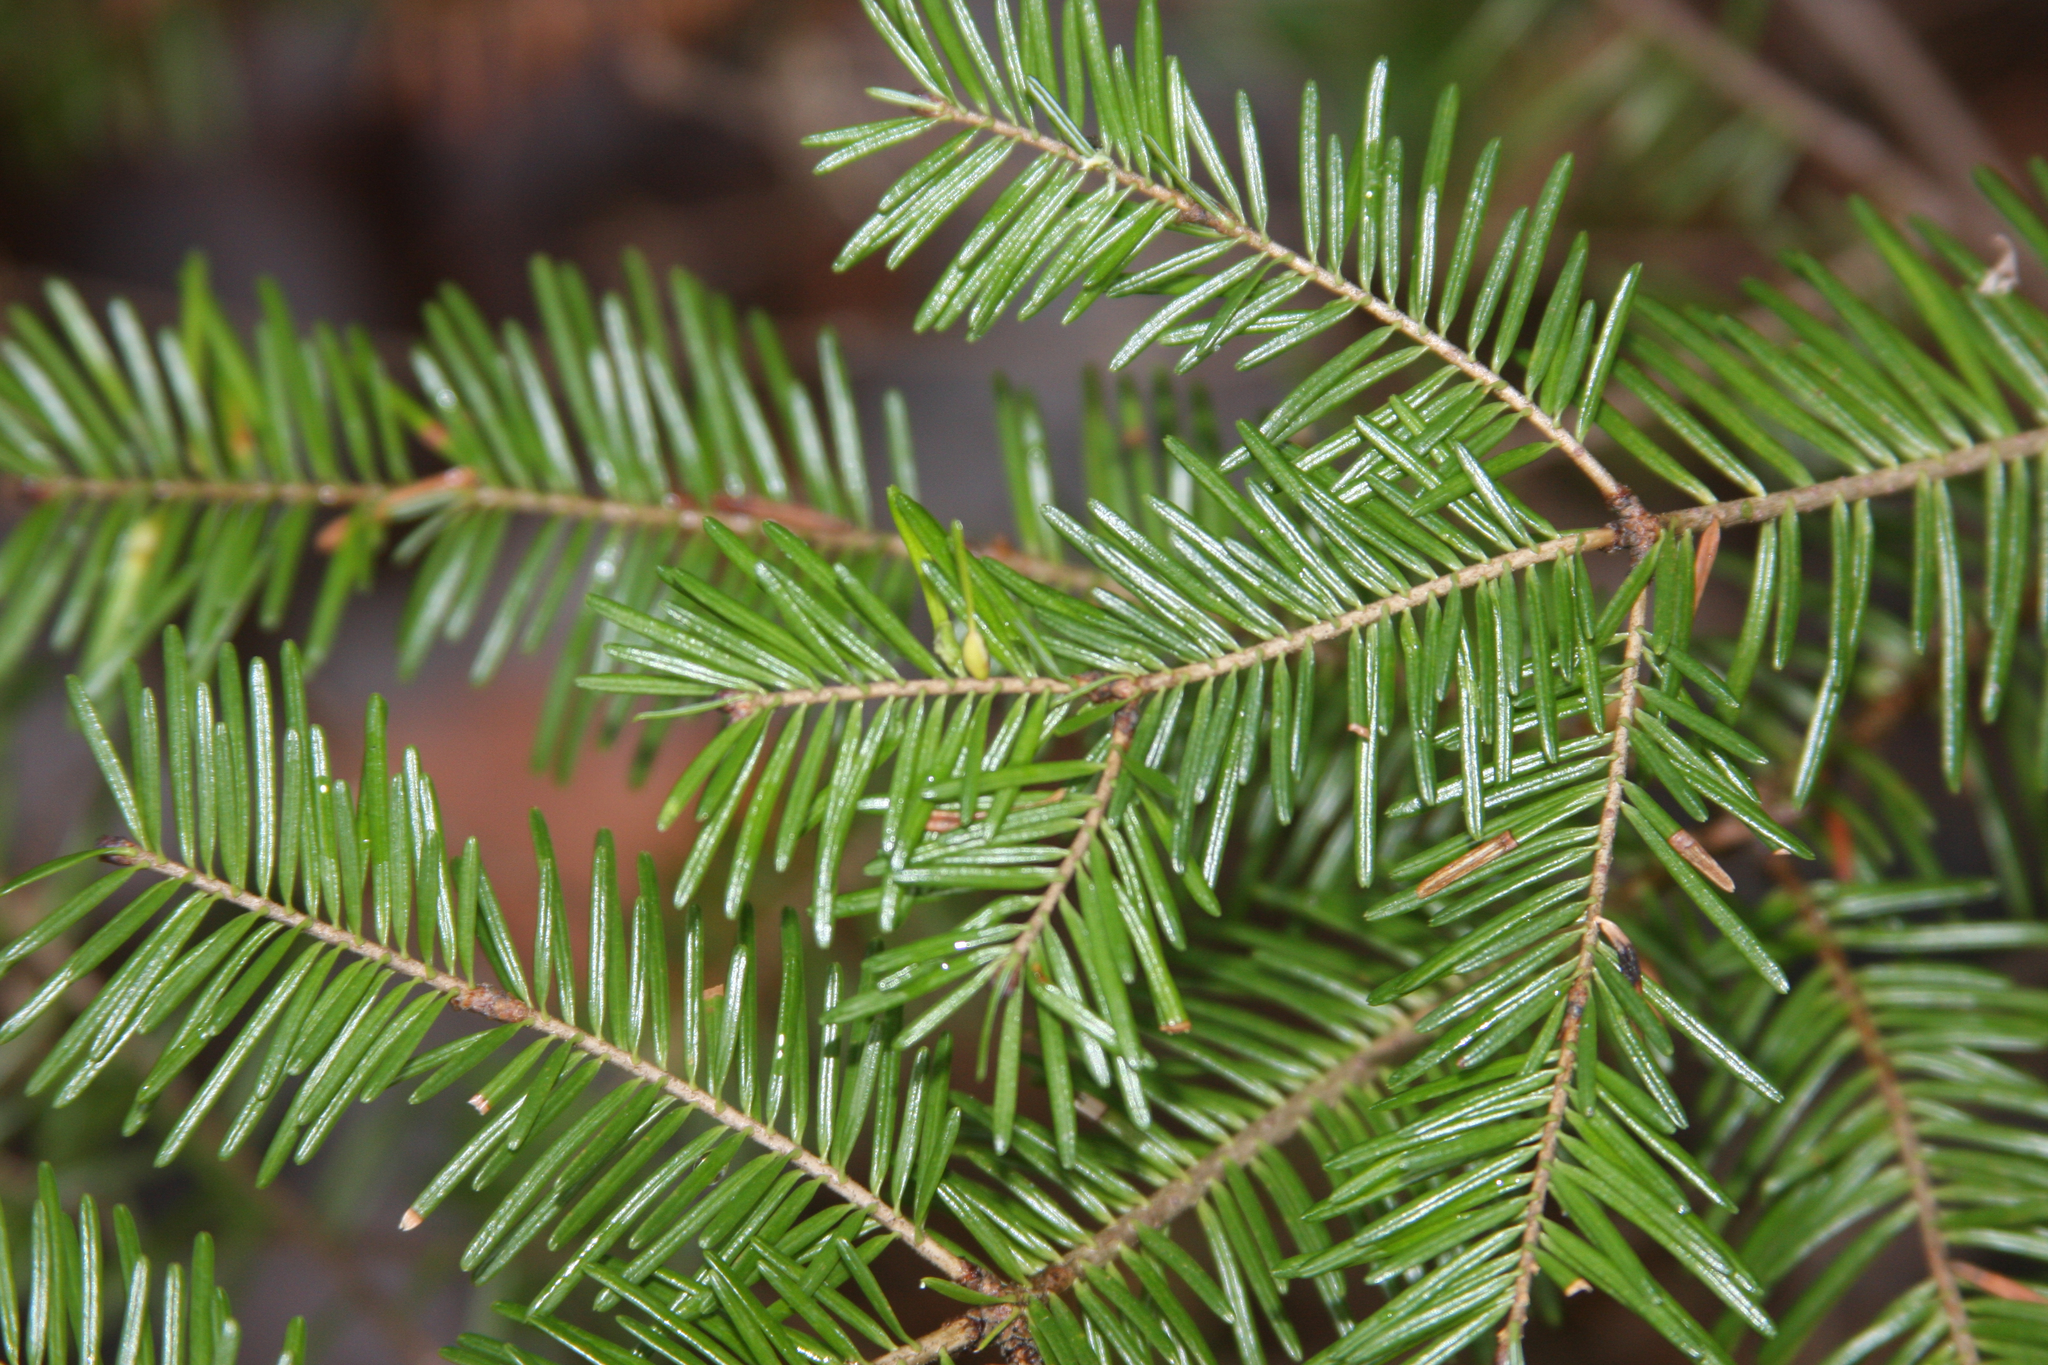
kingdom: Animalia
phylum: Arthropoda
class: Insecta
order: Diptera
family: Cecidomyiidae
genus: Paradiplosis
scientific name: Paradiplosis tumifex
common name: Gall midge
